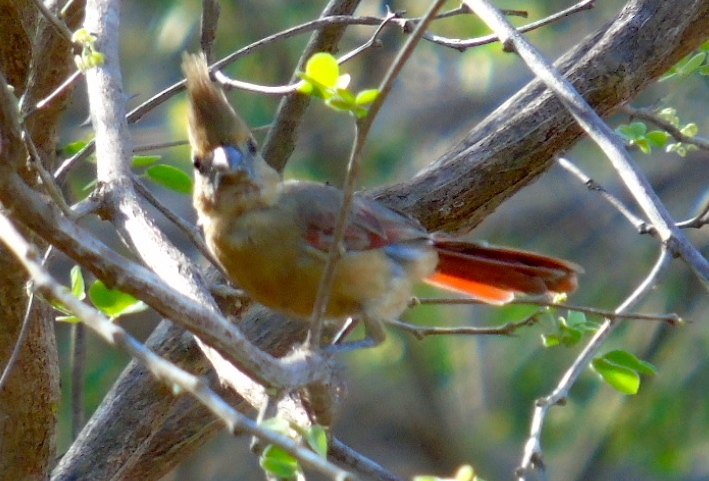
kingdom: Animalia
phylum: Chordata
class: Aves
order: Passeriformes
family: Cardinalidae
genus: Cardinalis
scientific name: Cardinalis sinuatus
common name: Pyrrhuloxia
